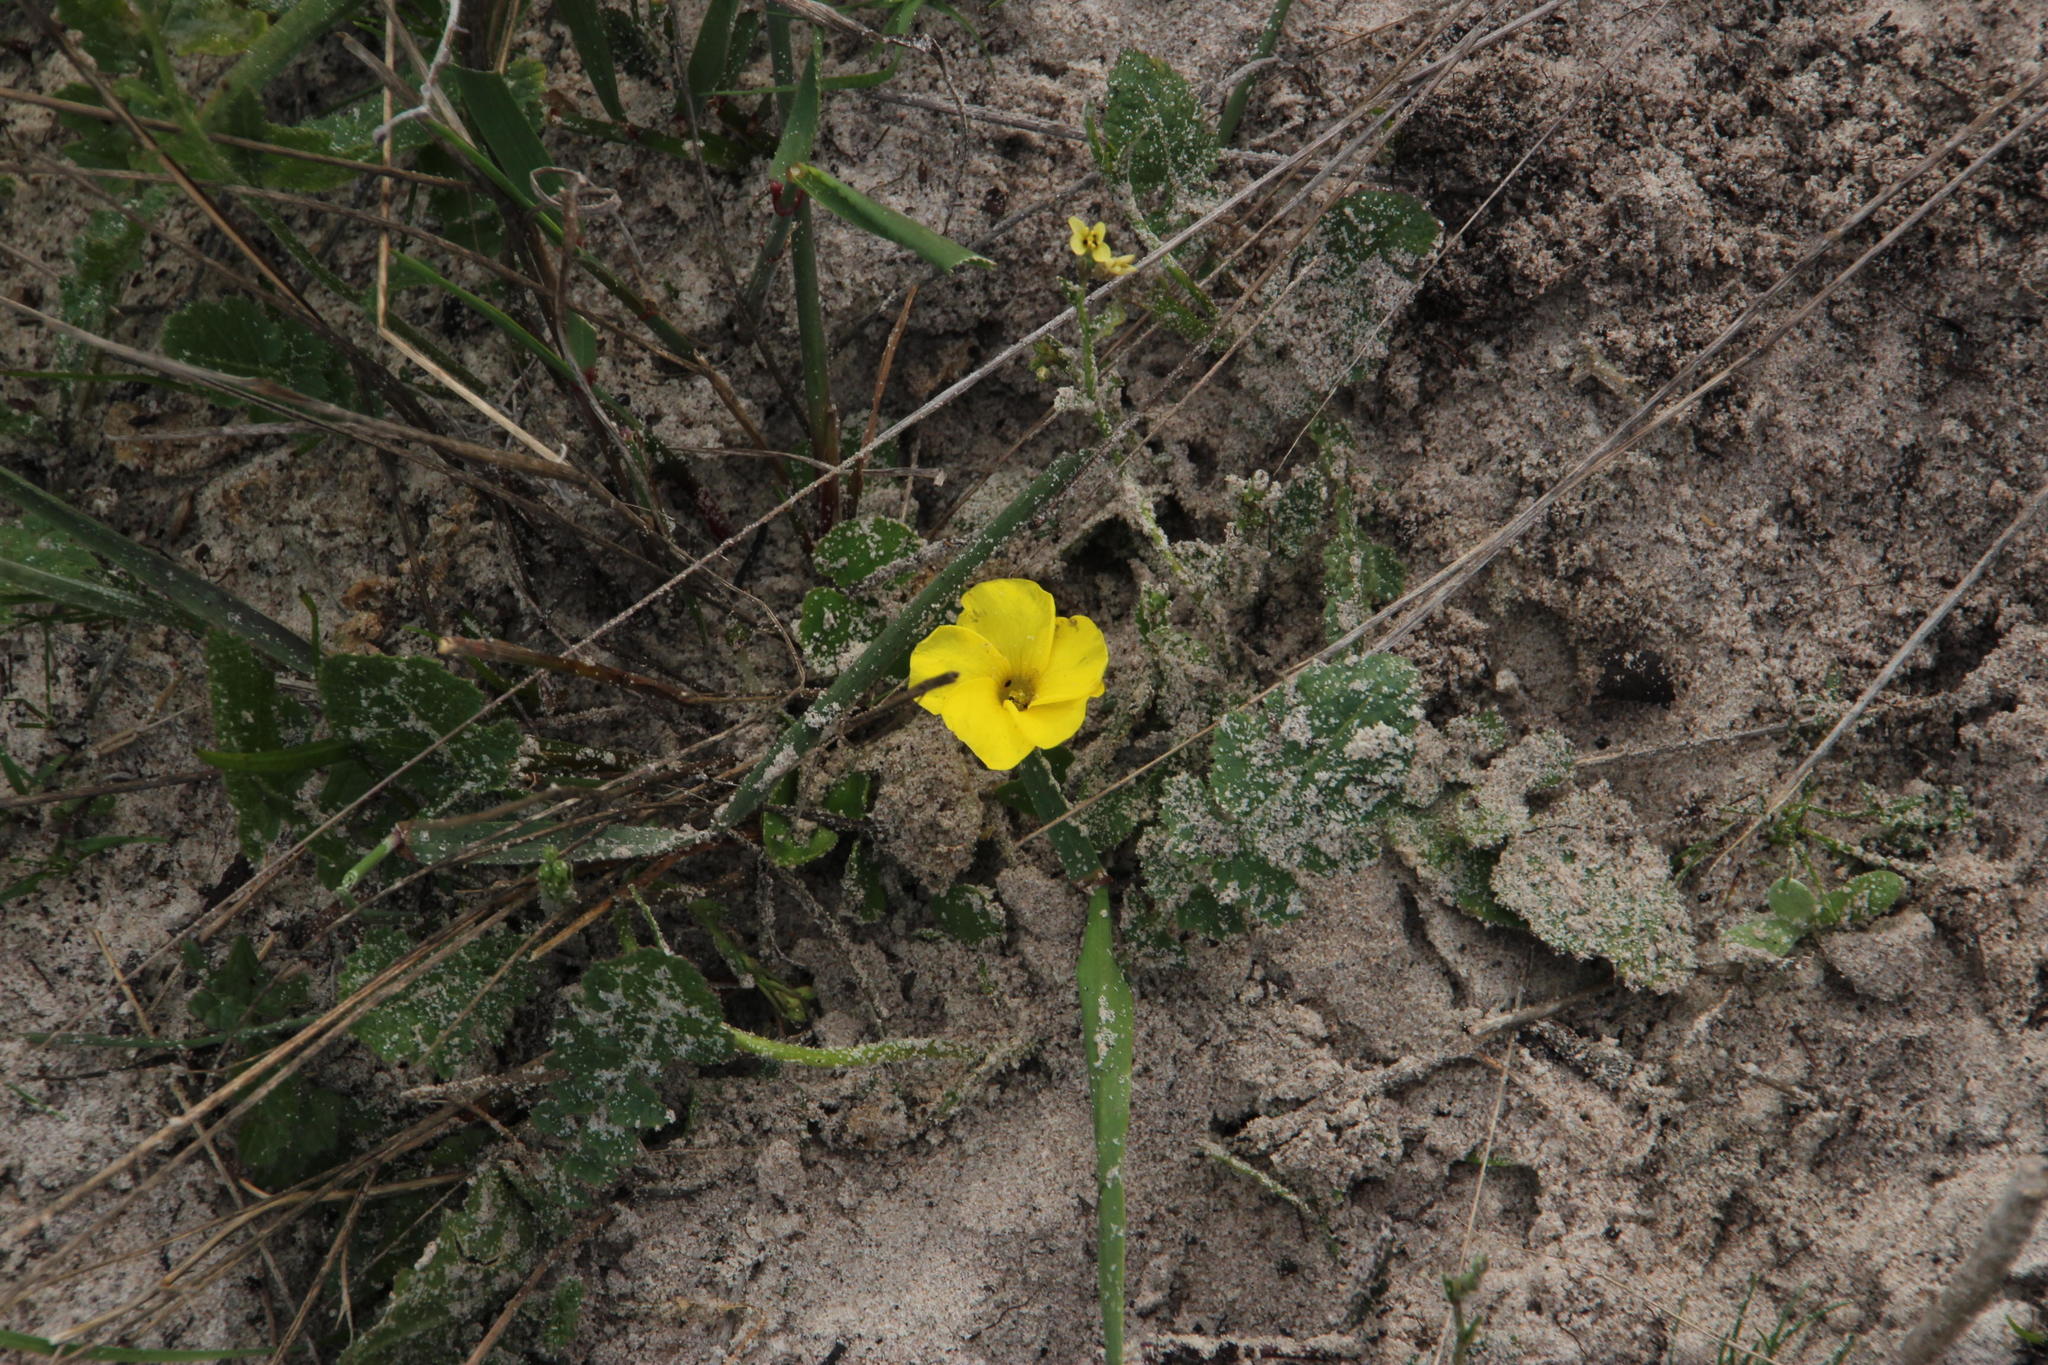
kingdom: Plantae
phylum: Tracheophyta
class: Magnoliopsida
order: Oxalidales
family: Oxalidaceae
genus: Oxalis
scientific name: Oxalis luteola
